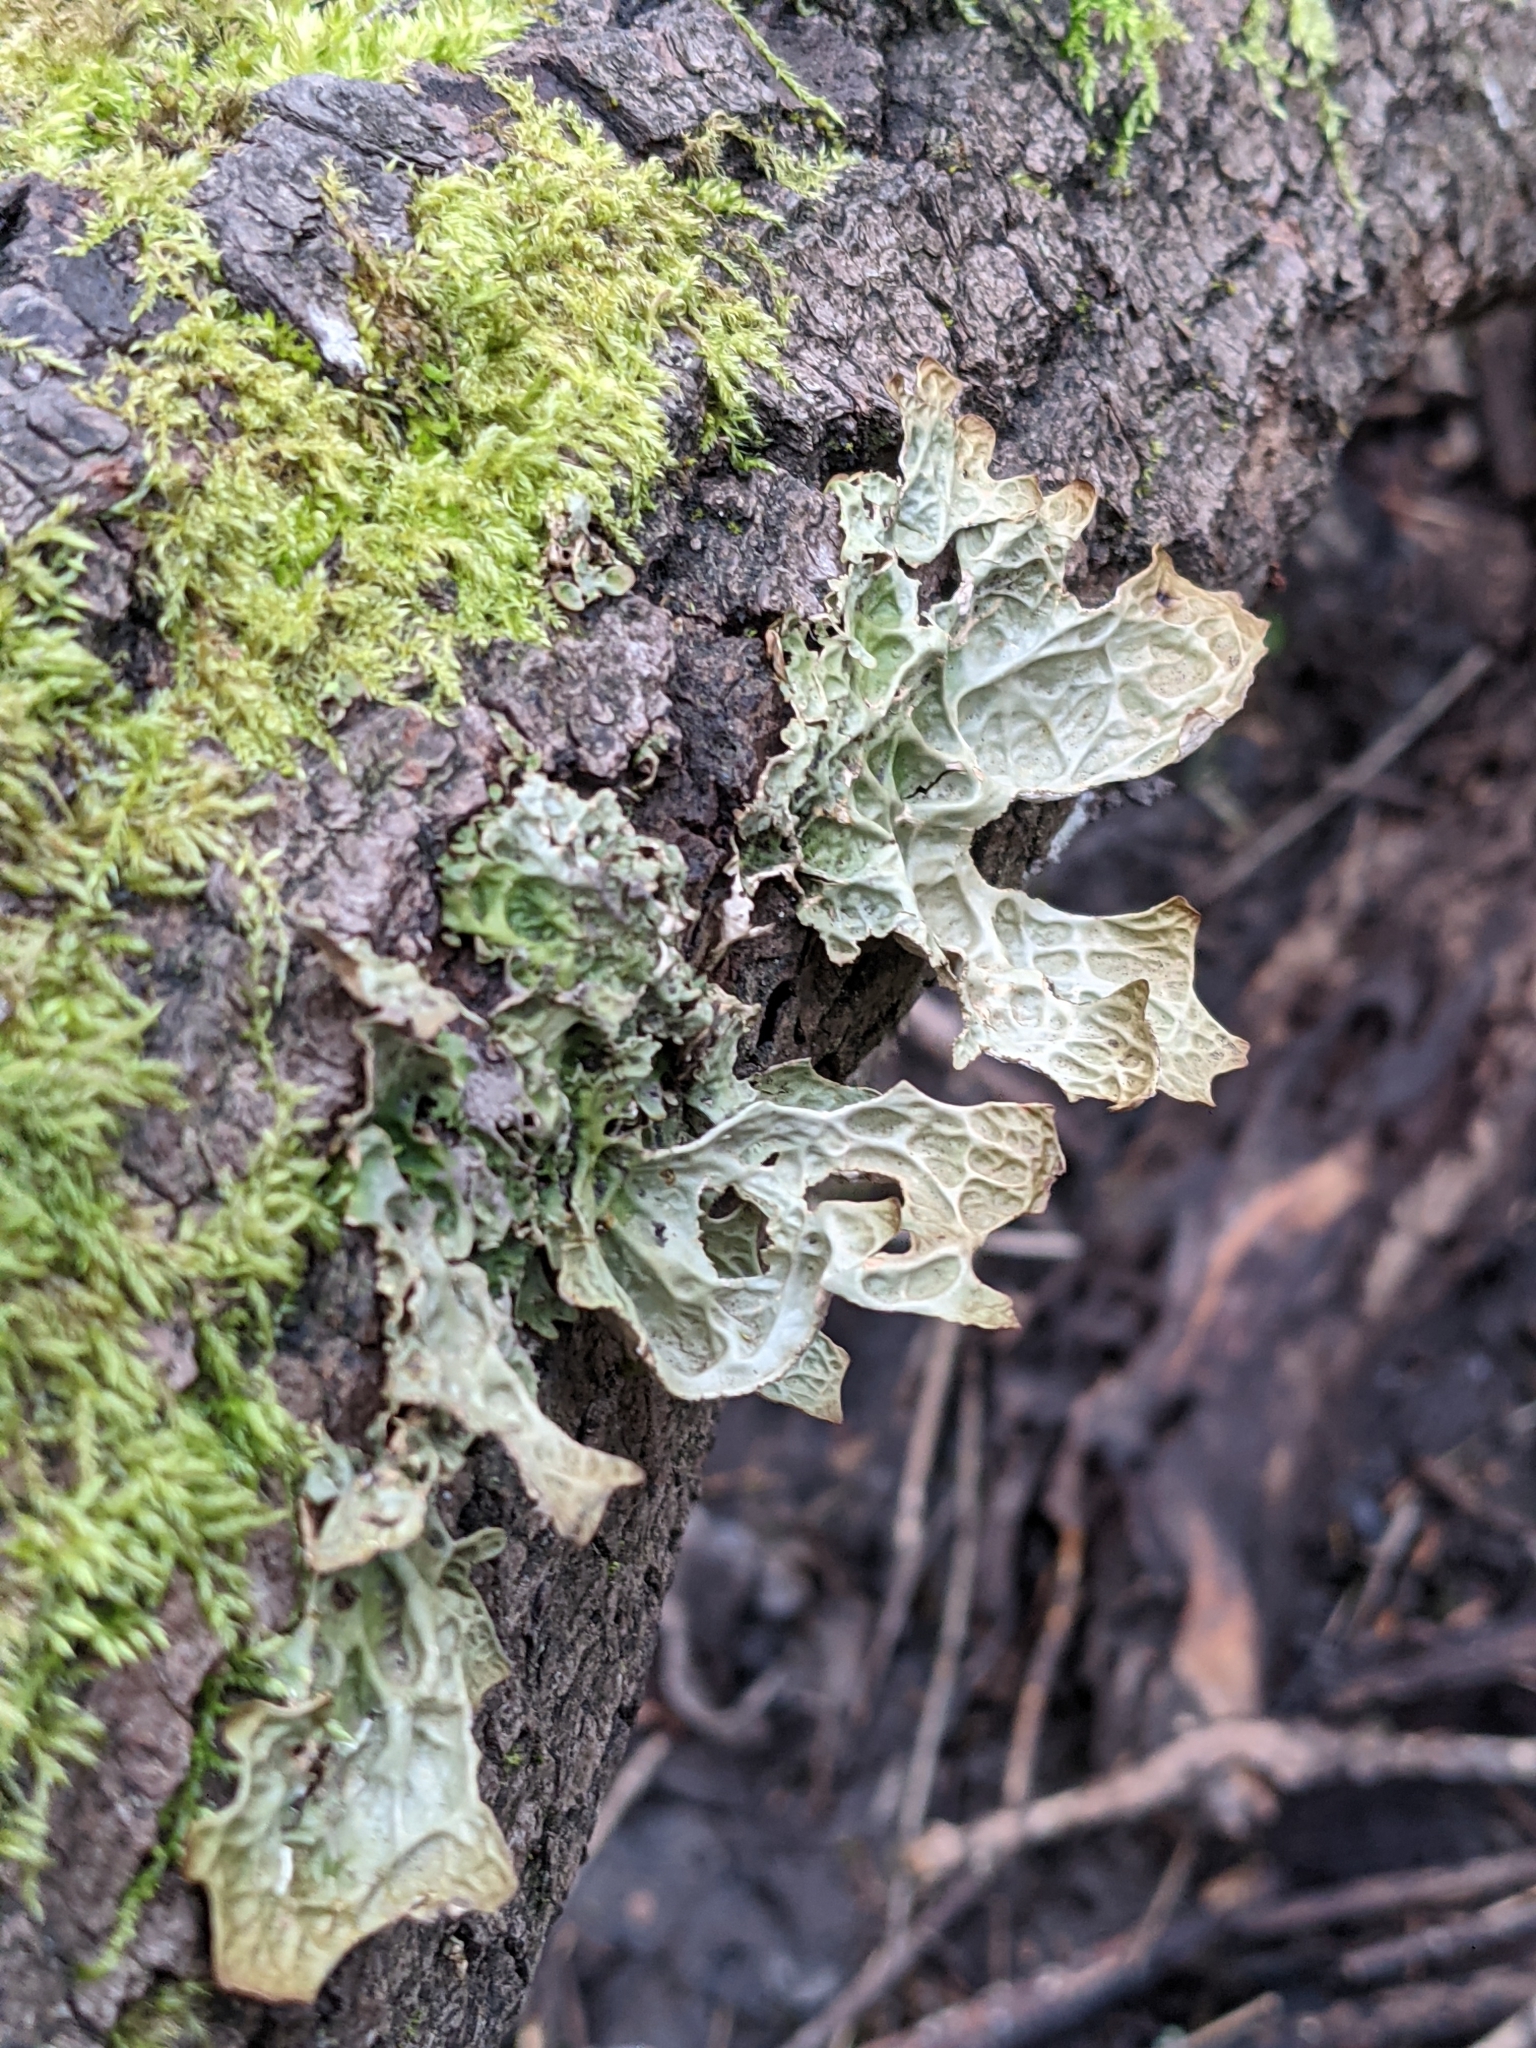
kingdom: Fungi
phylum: Ascomycota
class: Lecanoromycetes
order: Peltigerales
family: Lobariaceae
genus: Lobaria
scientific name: Lobaria pulmonaria
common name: Lungwort
